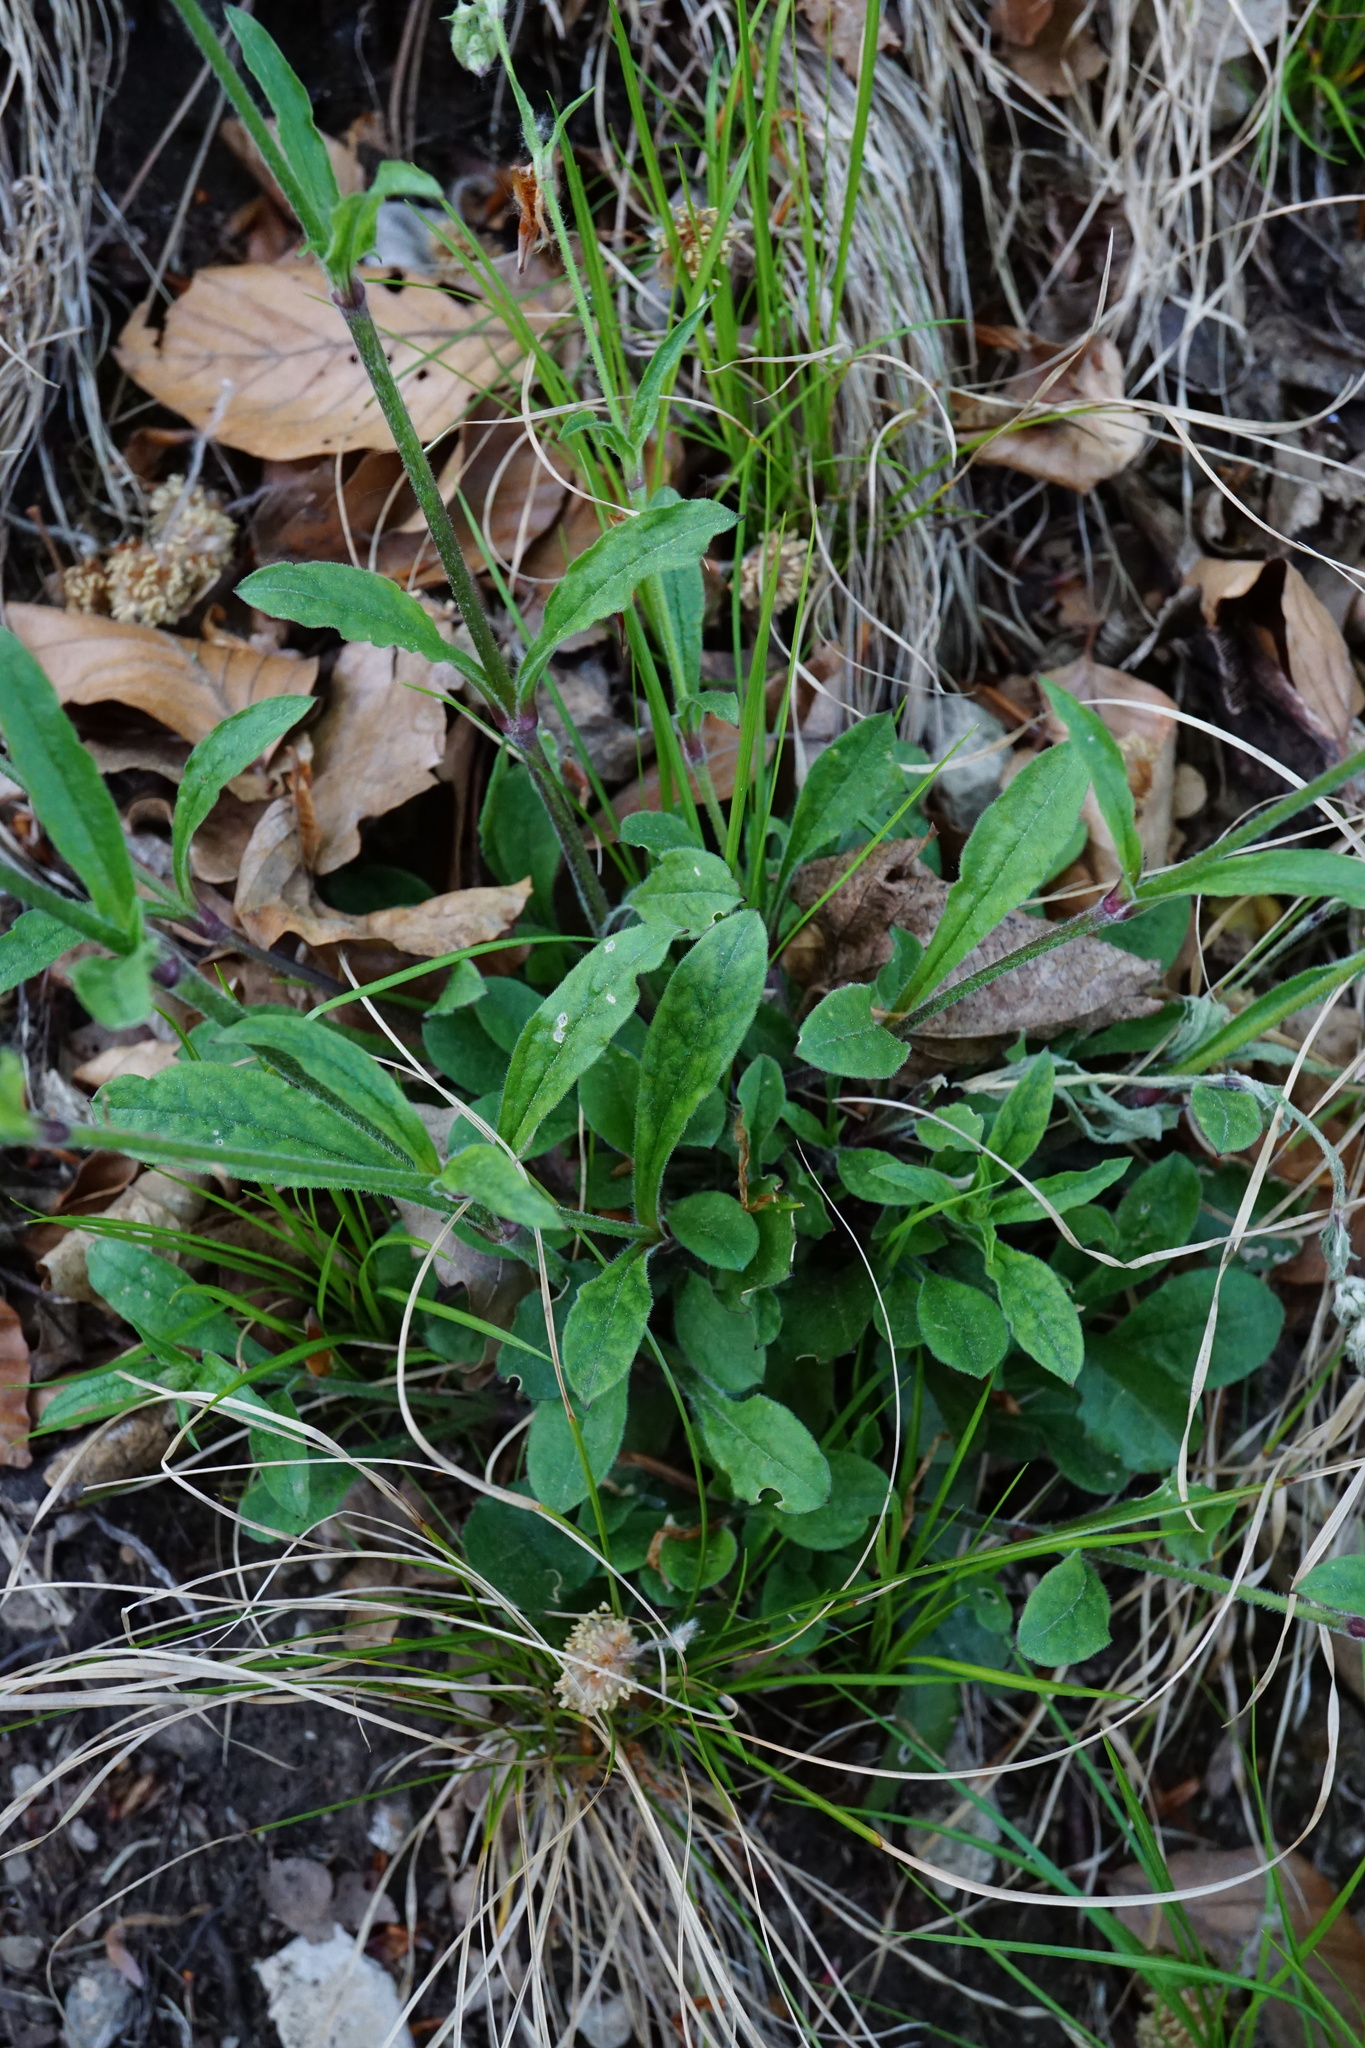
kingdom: Plantae
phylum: Tracheophyta
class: Magnoliopsida
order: Caryophyllales
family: Caryophyllaceae
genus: Silene
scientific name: Silene nutans
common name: Nottingham catchfly
